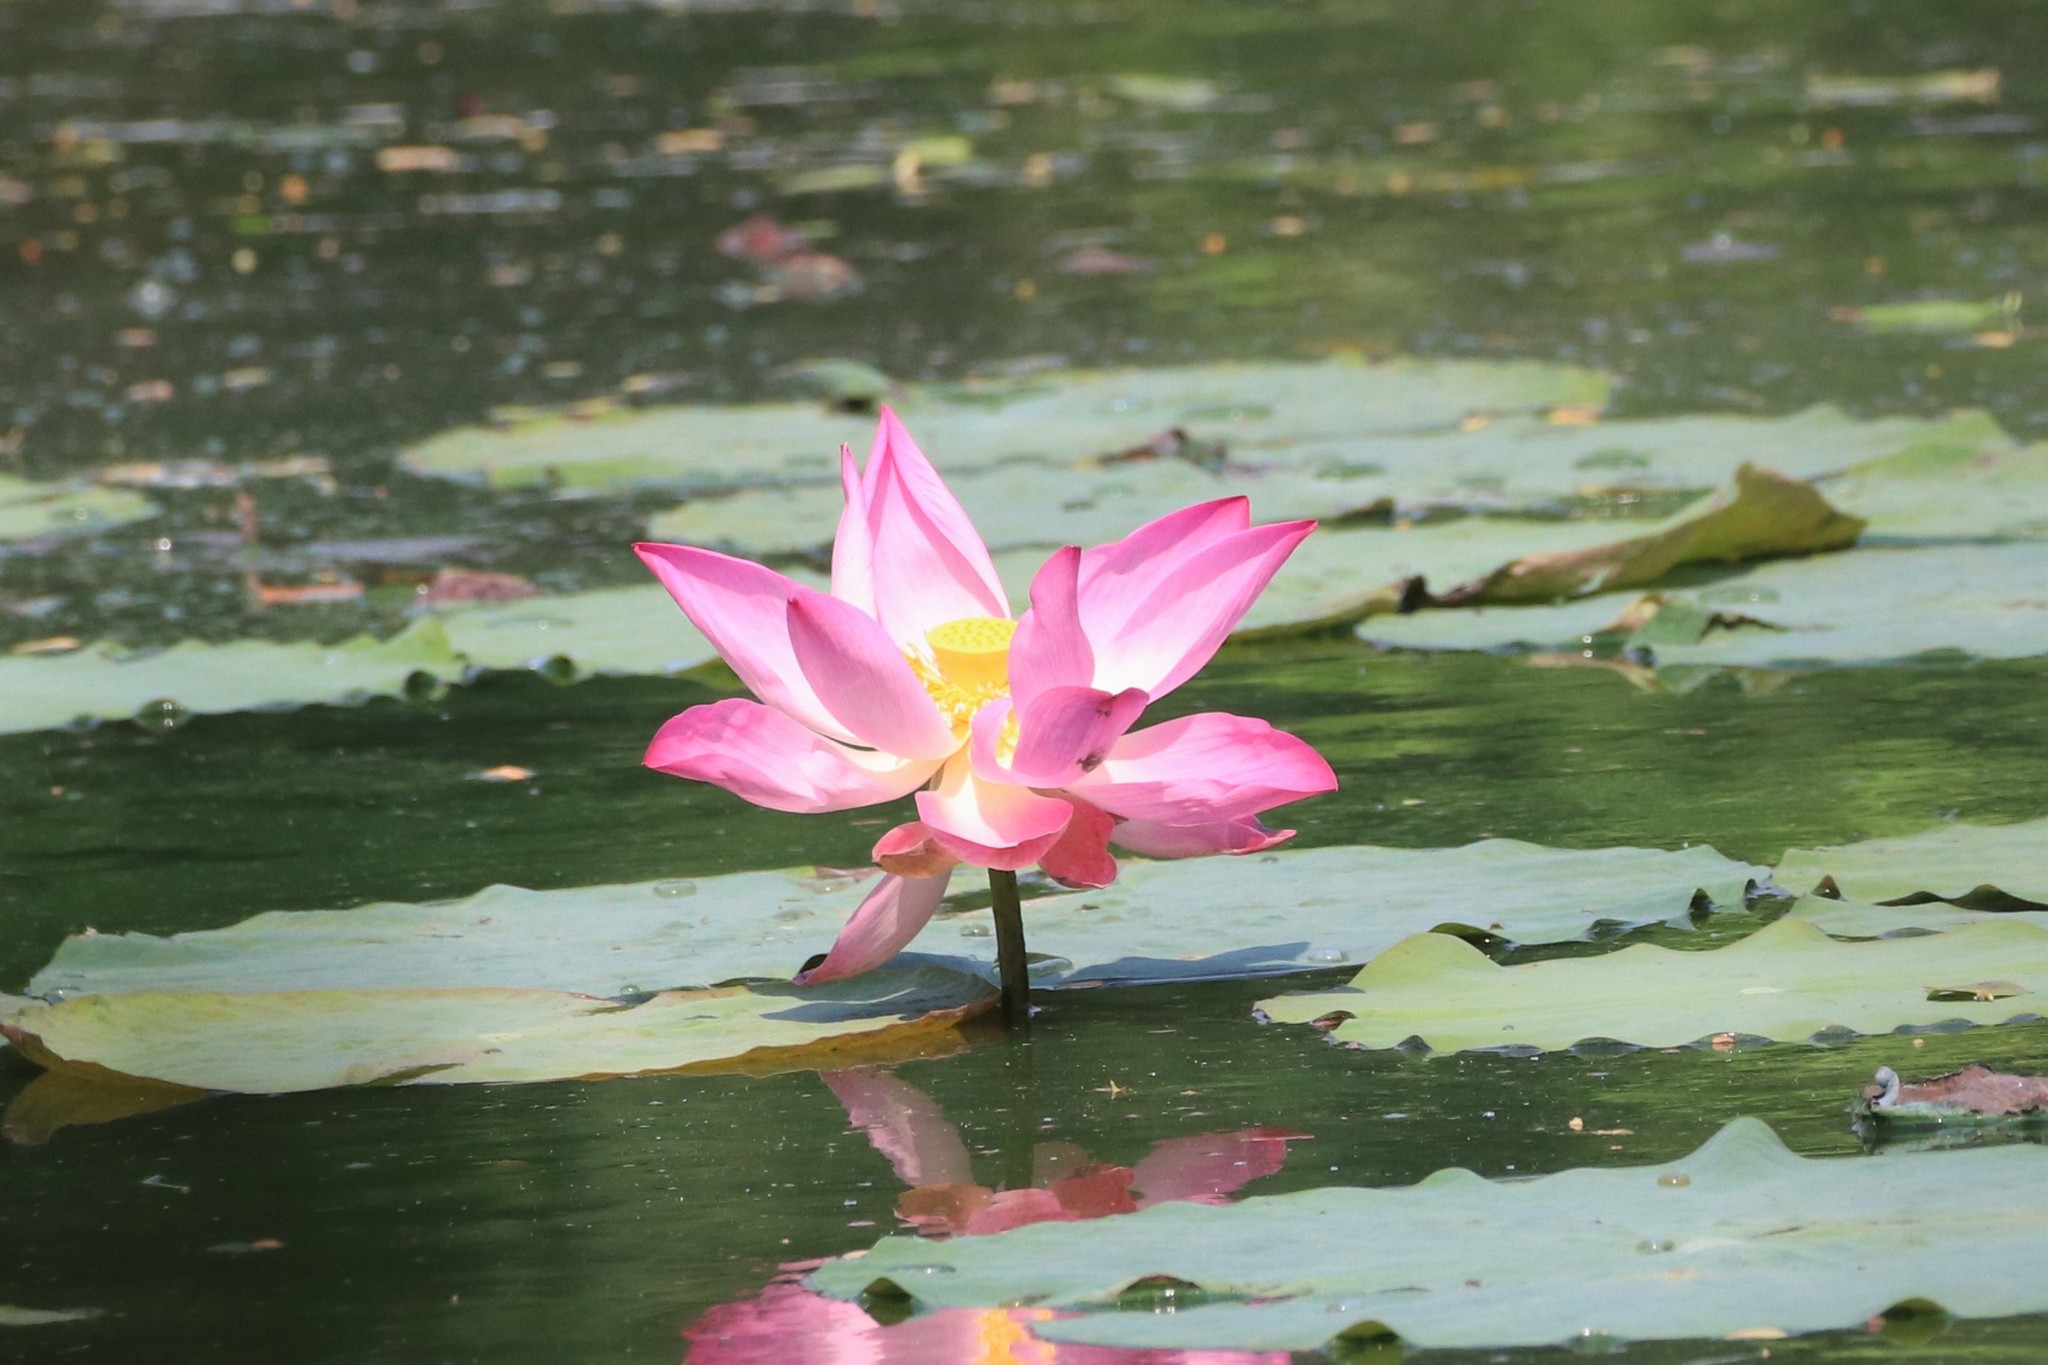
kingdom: Plantae
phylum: Tracheophyta
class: Magnoliopsida
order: Proteales
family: Nelumbonaceae
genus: Nelumbo
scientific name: Nelumbo nucifera
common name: Sacred lotus
